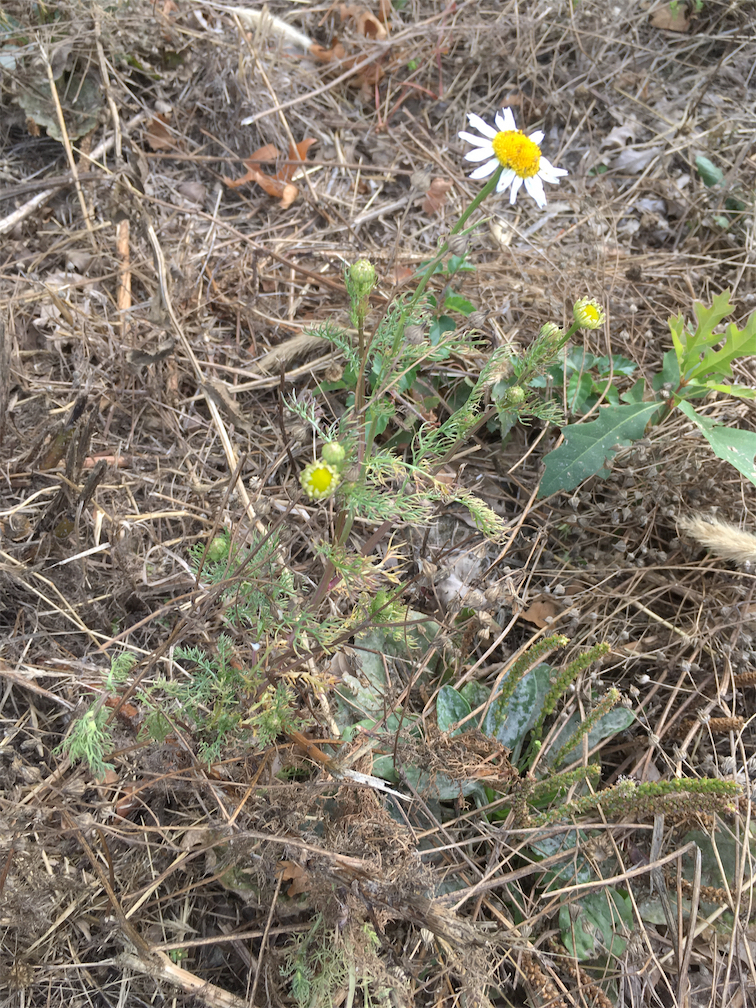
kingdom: Plantae
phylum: Tracheophyta
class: Magnoliopsida
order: Asterales
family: Asteraceae
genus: Tripleurospermum
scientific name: Tripleurospermum inodorum
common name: Scentless mayweed
